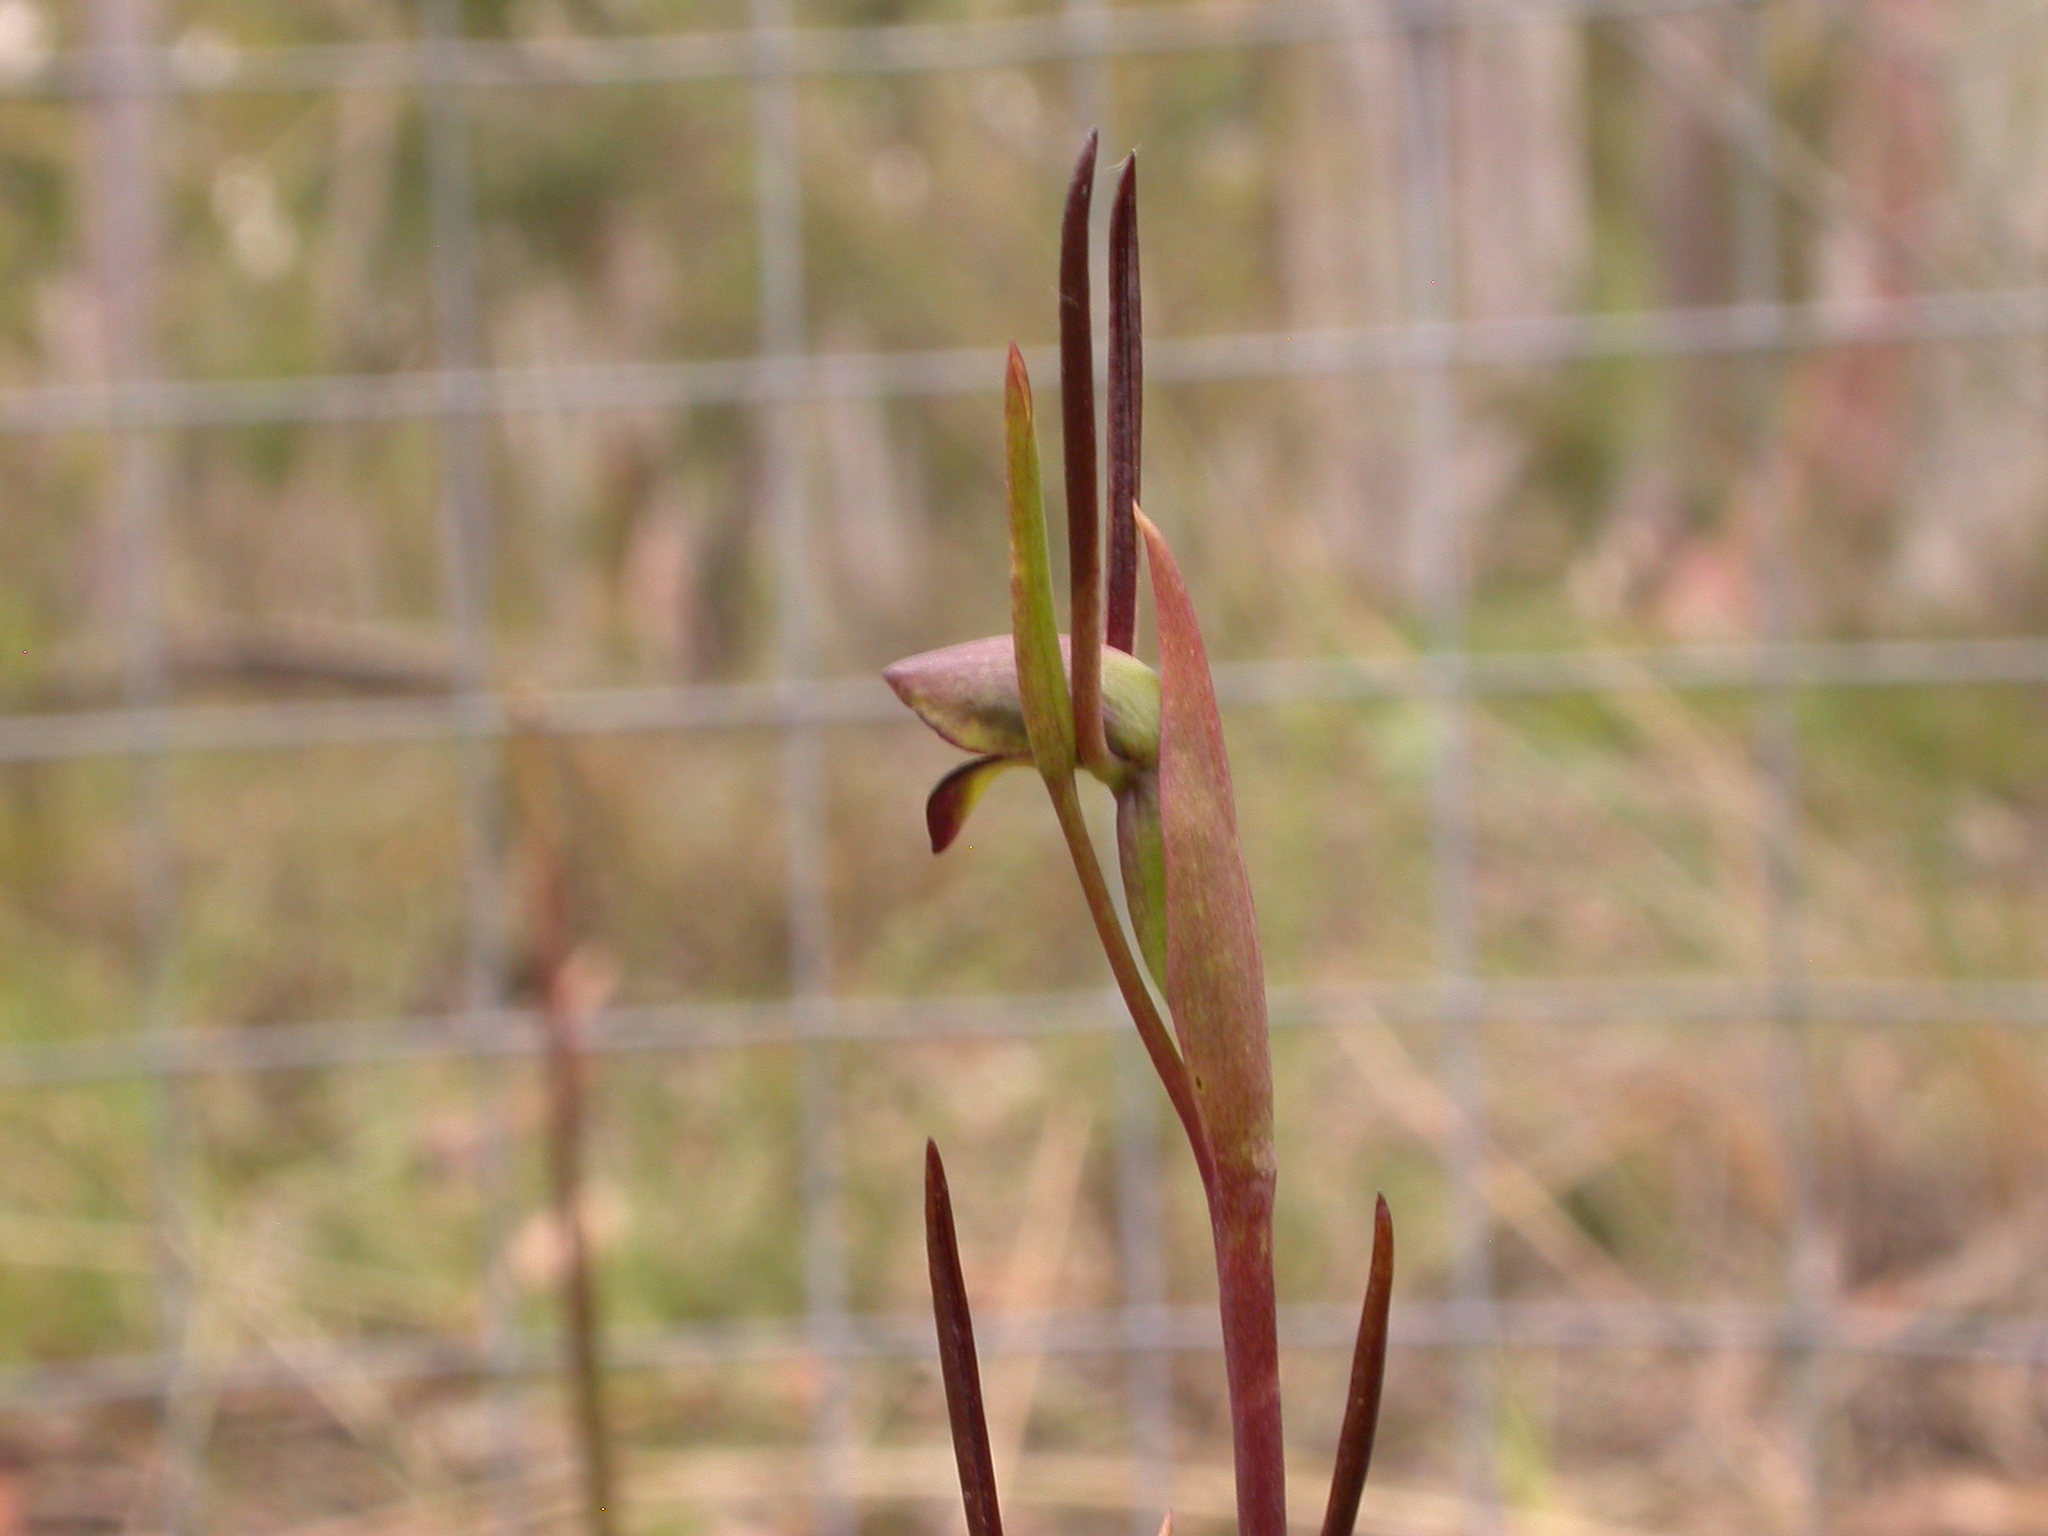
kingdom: Plantae
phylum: Tracheophyta
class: Liliopsida
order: Asparagales
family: Orchidaceae
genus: Orthoceras
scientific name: Orthoceras strictum
